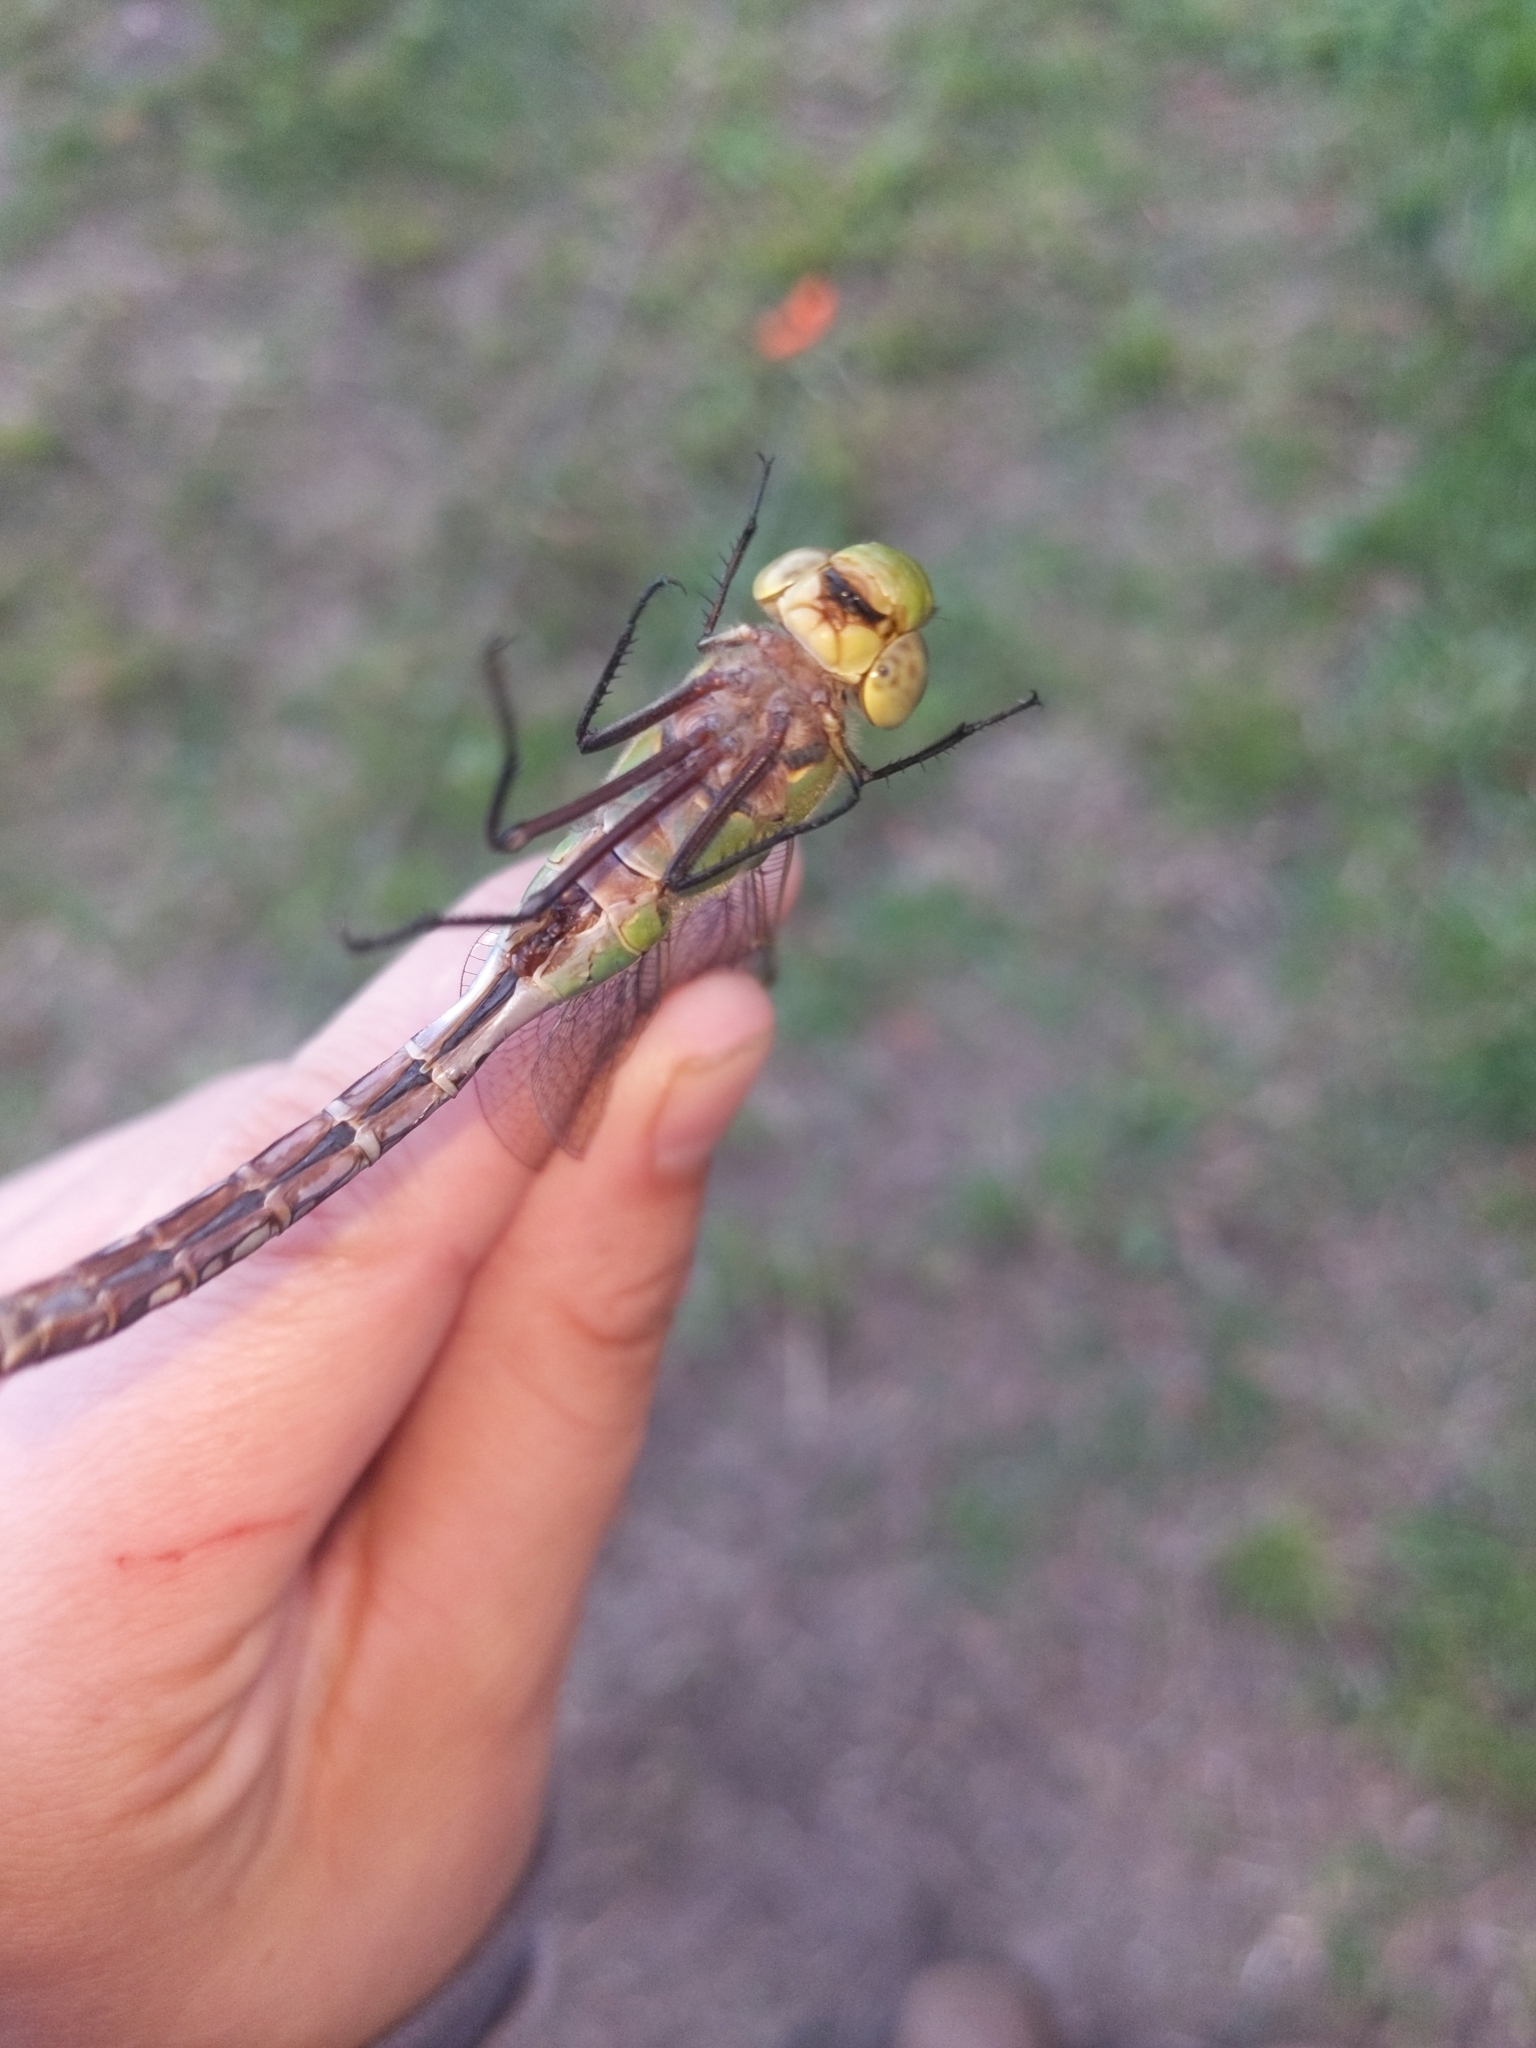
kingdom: Animalia
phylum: Arthropoda
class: Insecta
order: Odonata
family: Aeshnidae
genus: Anax
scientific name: Anax junius
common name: Common green darner
